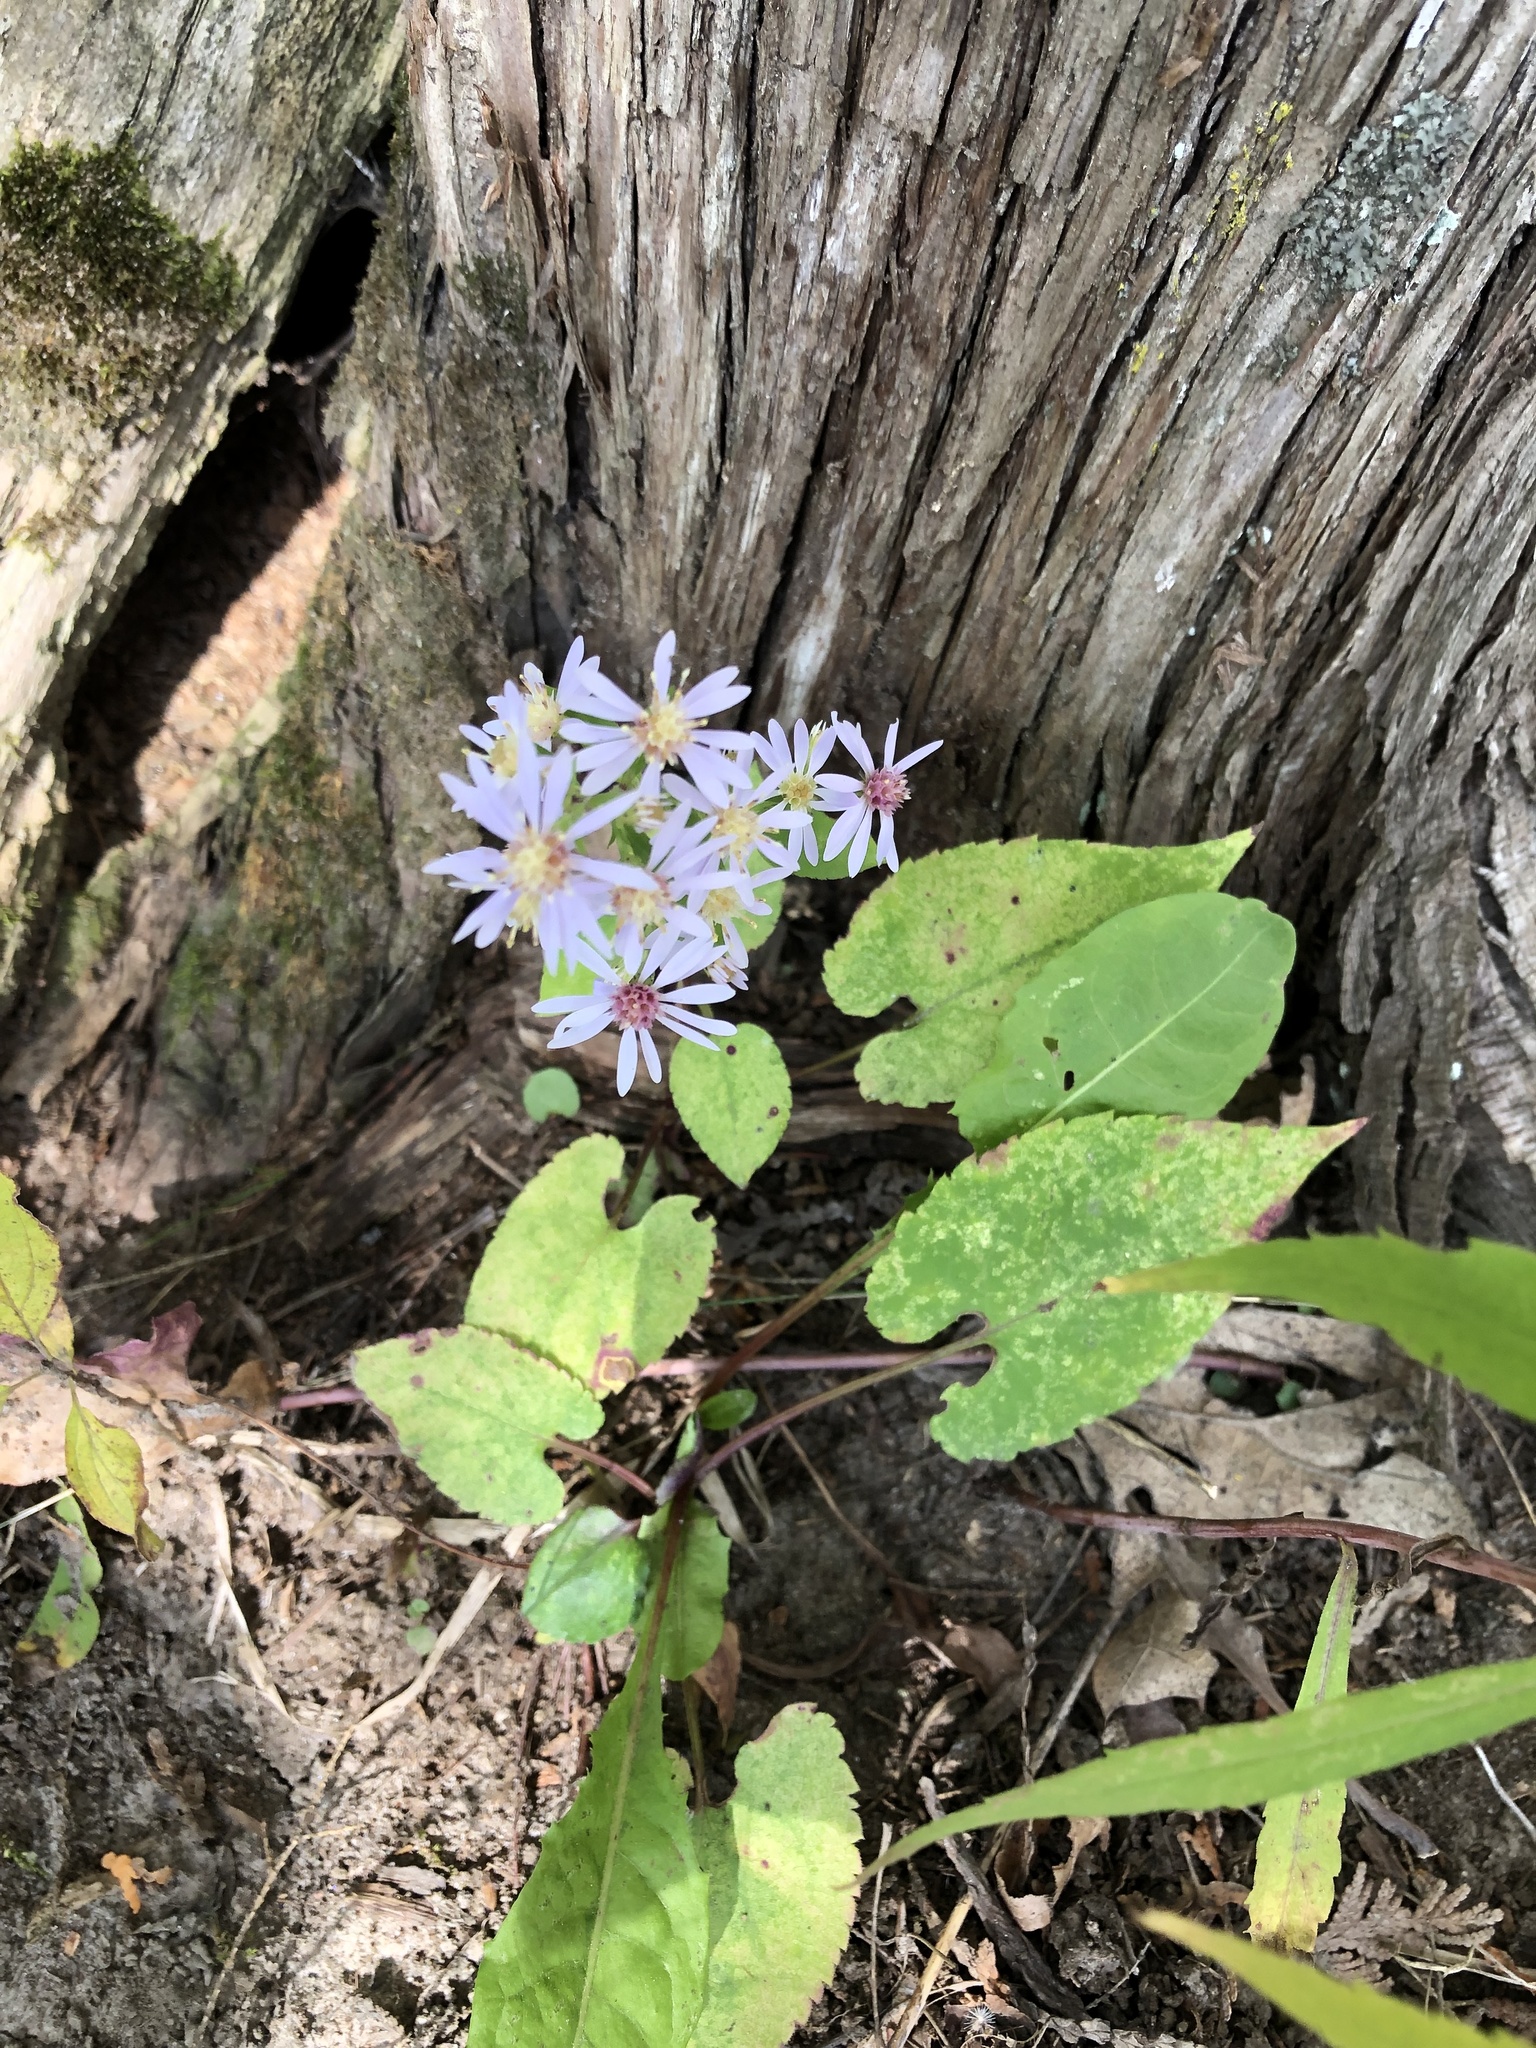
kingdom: Plantae
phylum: Tracheophyta
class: Magnoliopsida
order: Asterales
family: Asteraceae
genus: Symphyotrichum
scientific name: Symphyotrichum cordifolium
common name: Beeweed
